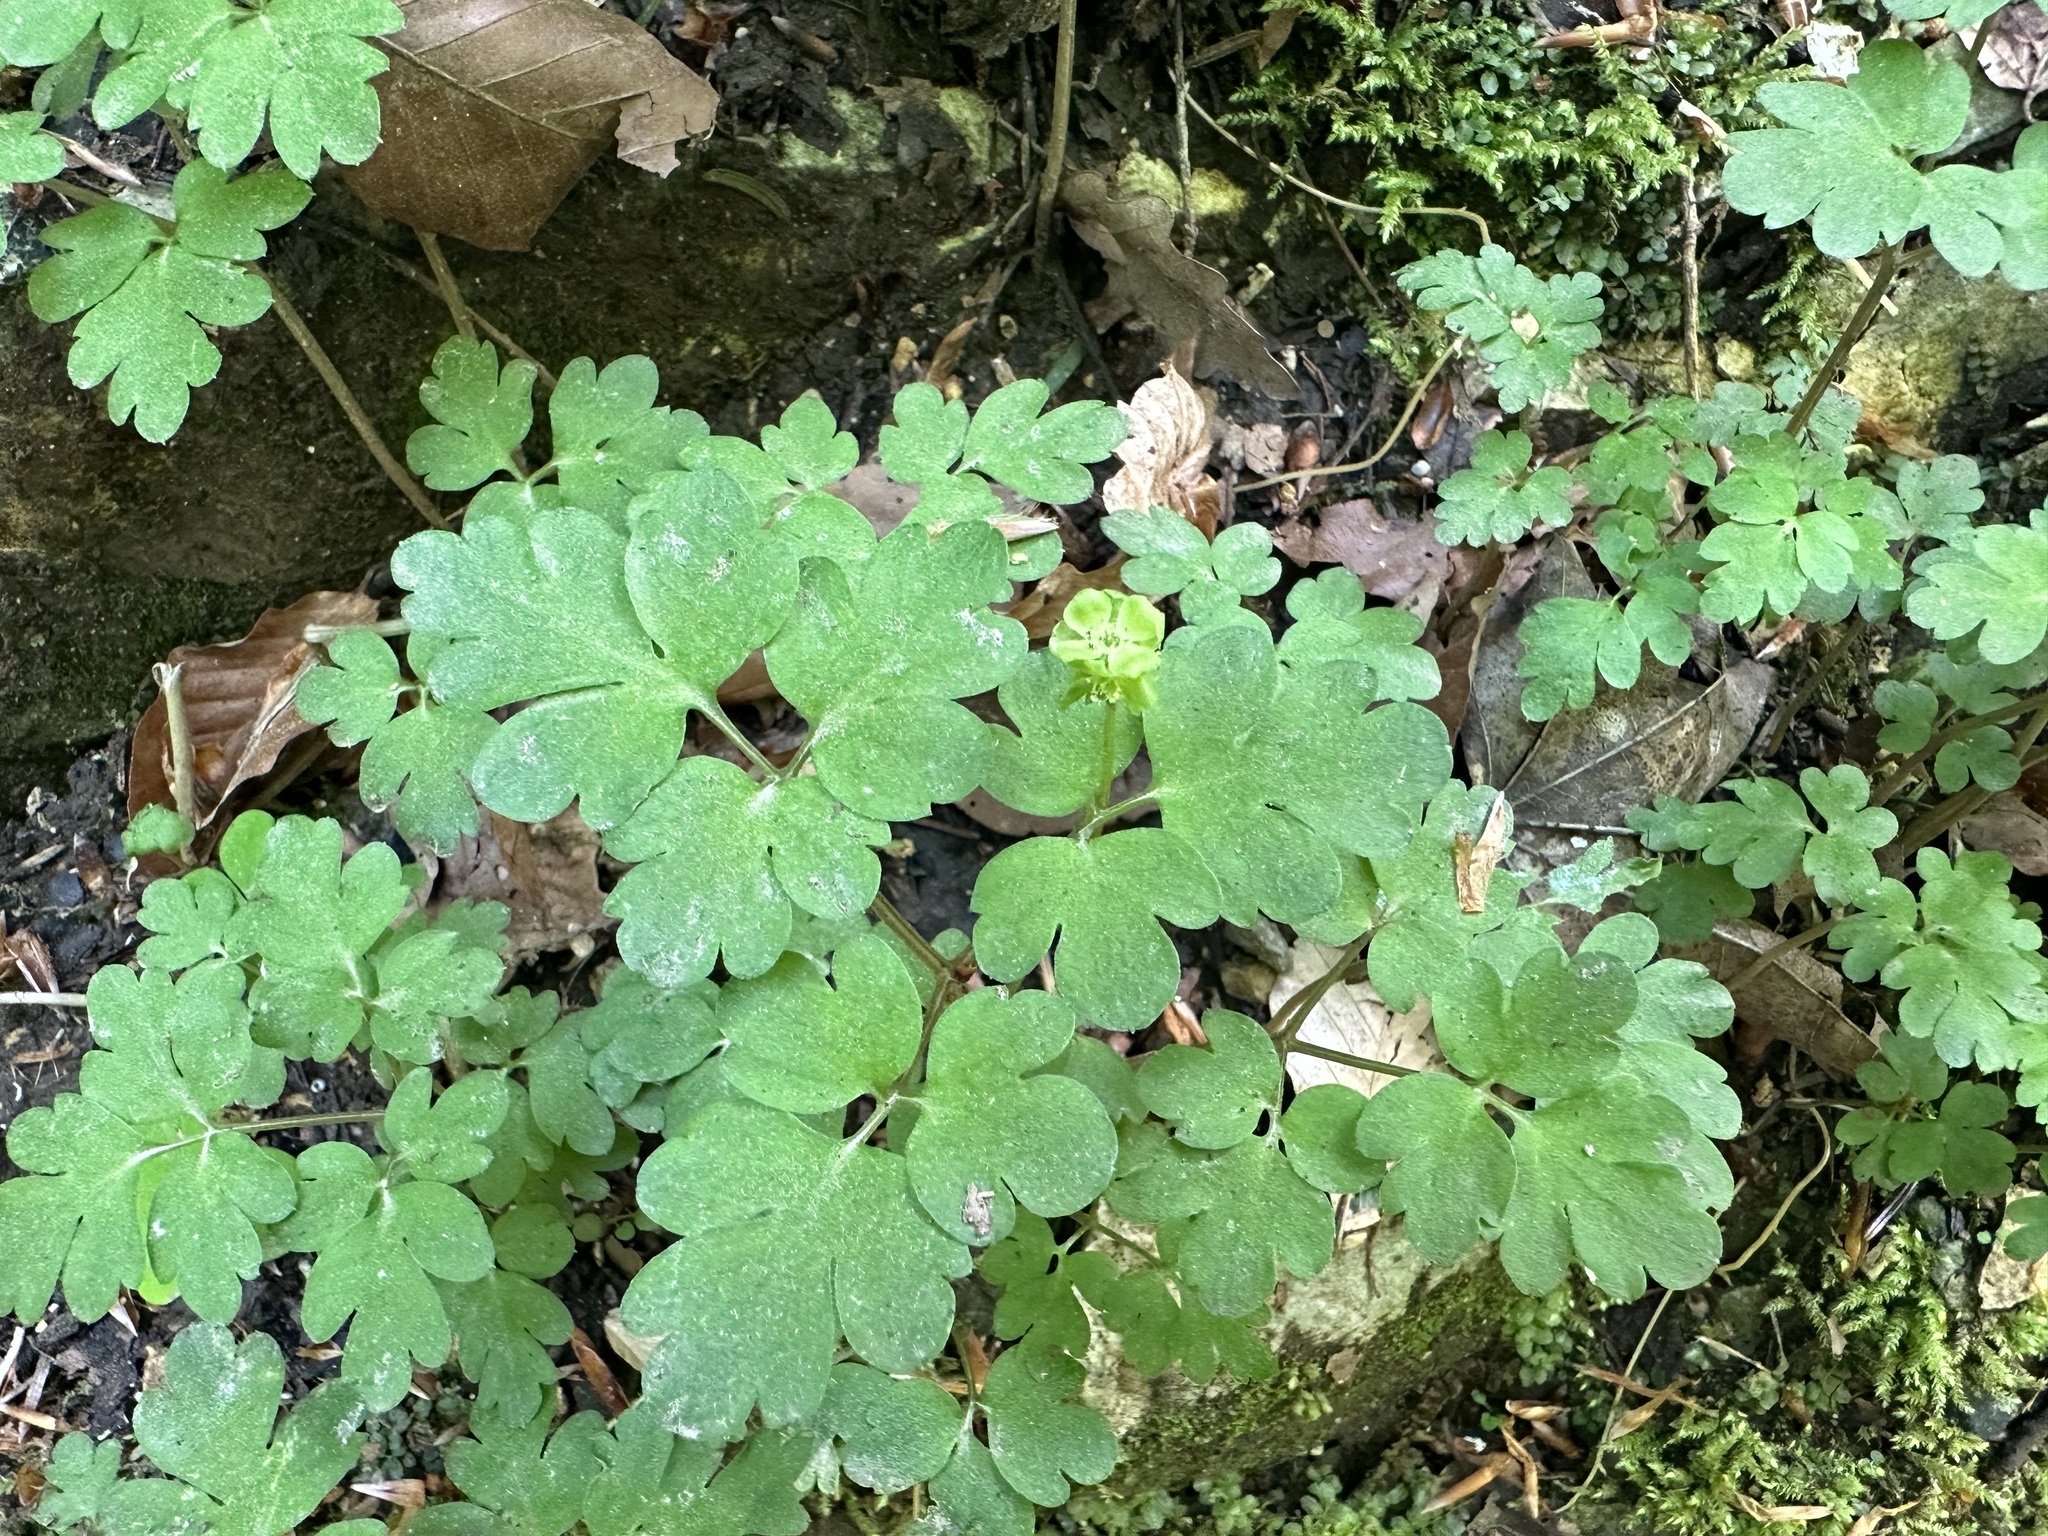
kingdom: Plantae
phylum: Tracheophyta
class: Magnoliopsida
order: Dipsacales
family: Viburnaceae
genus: Adoxa
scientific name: Adoxa moschatellina
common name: Moschatel
